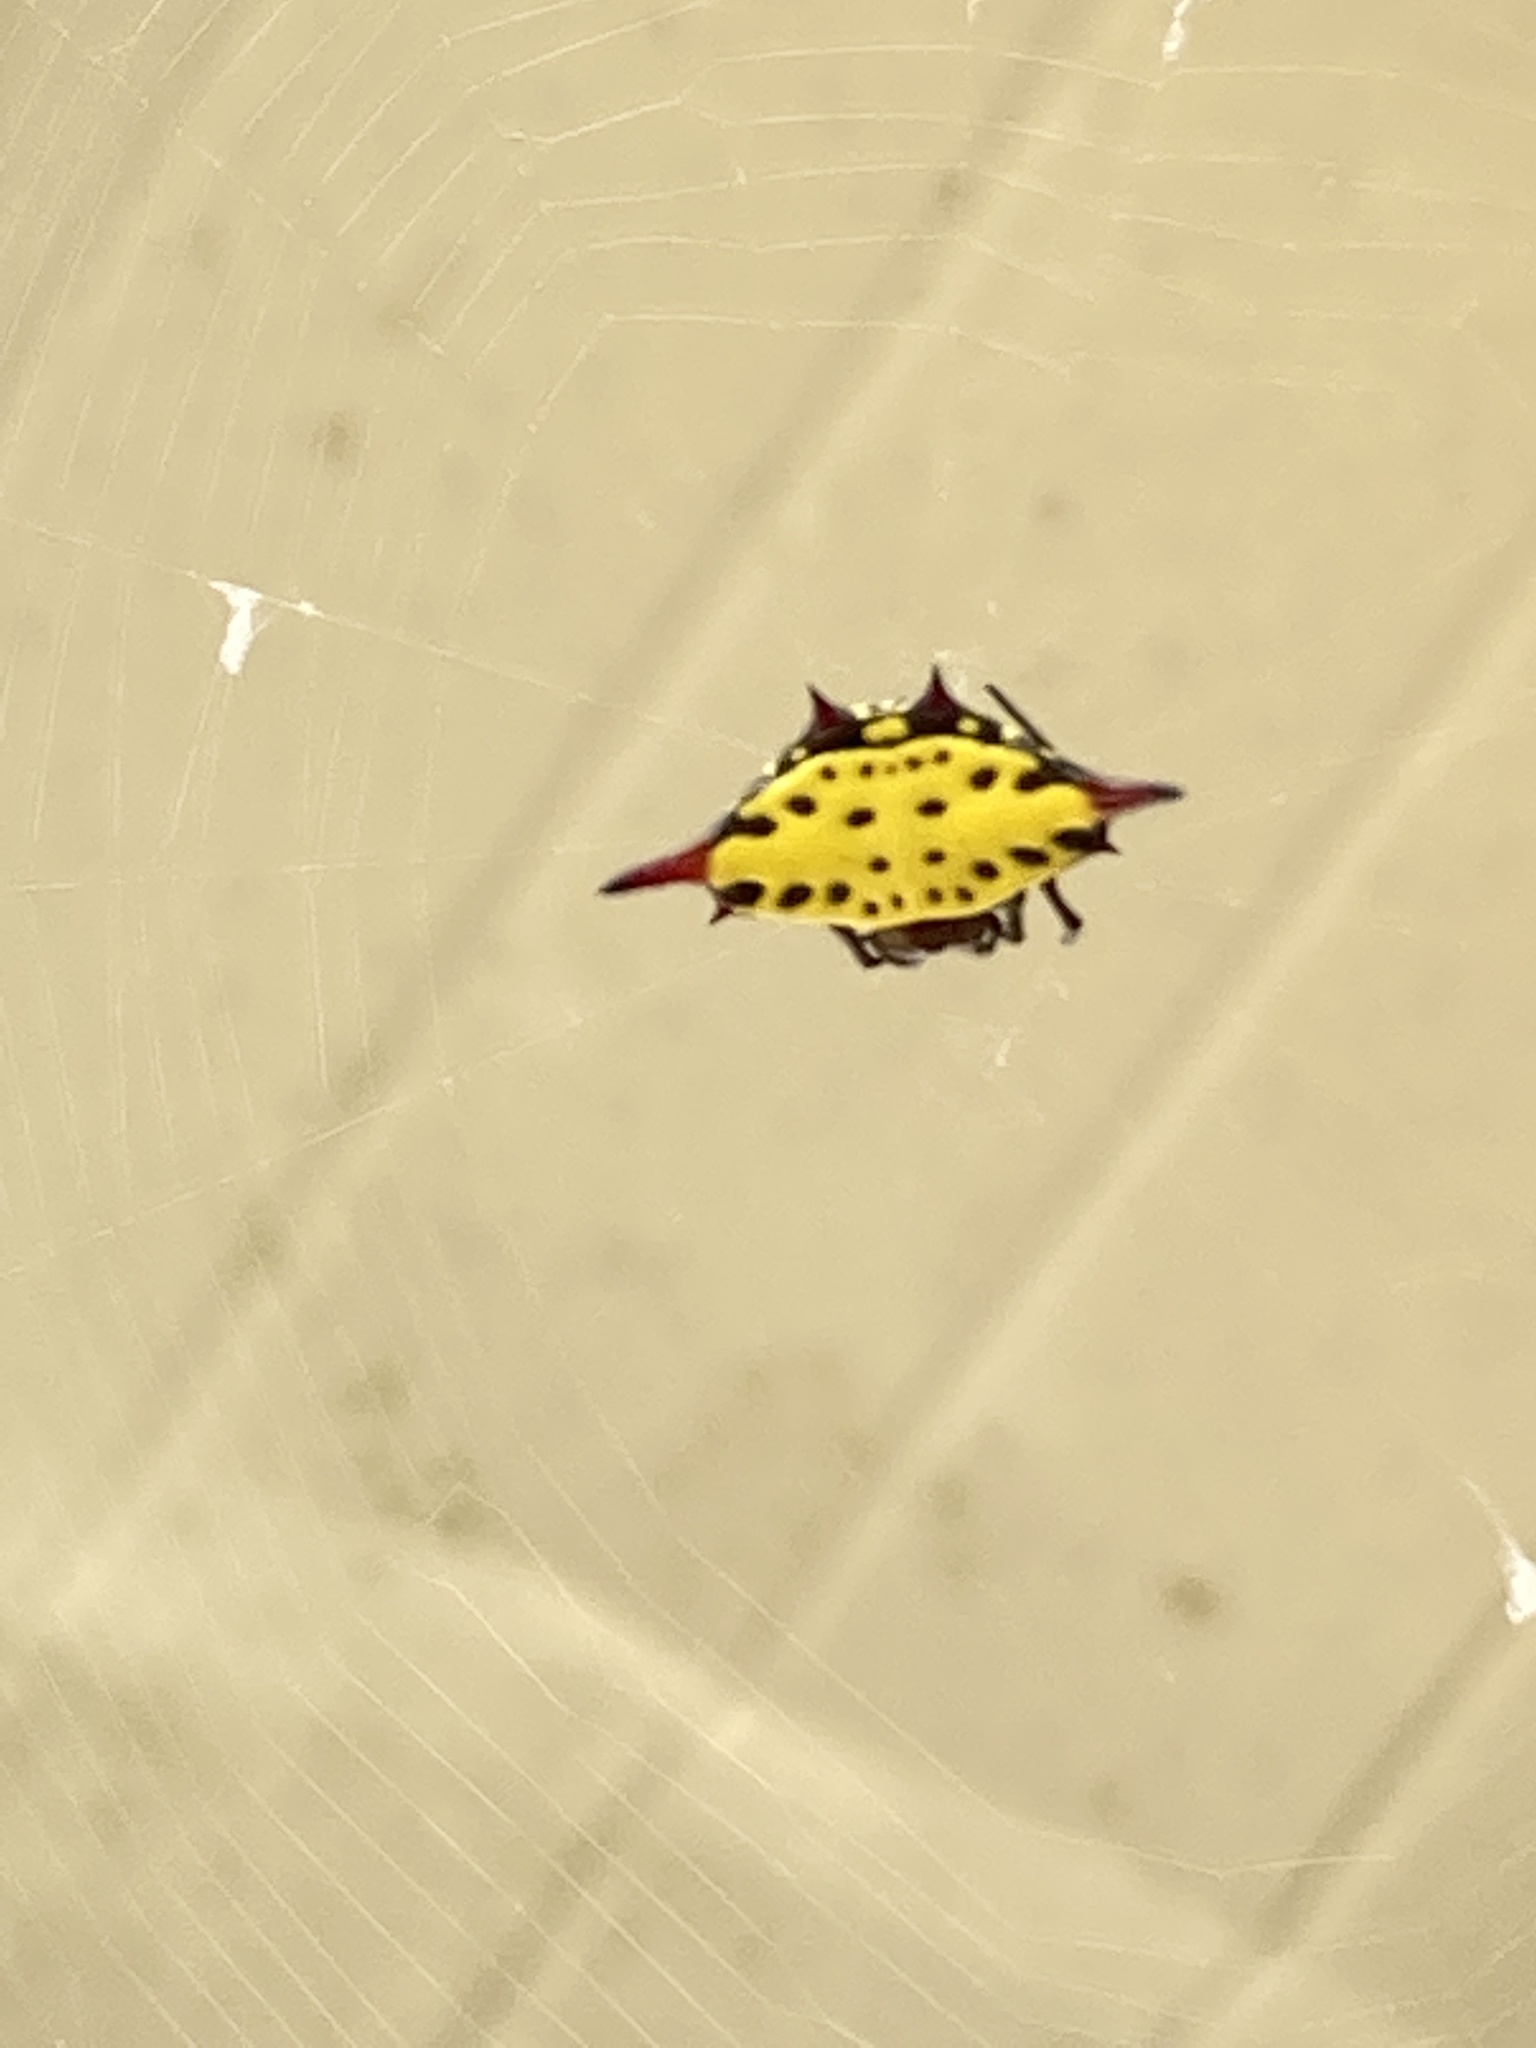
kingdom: Animalia
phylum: Arthropoda
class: Arachnida
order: Araneae
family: Araneidae
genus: Gasteracantha
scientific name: Gasteracantha sauteri
